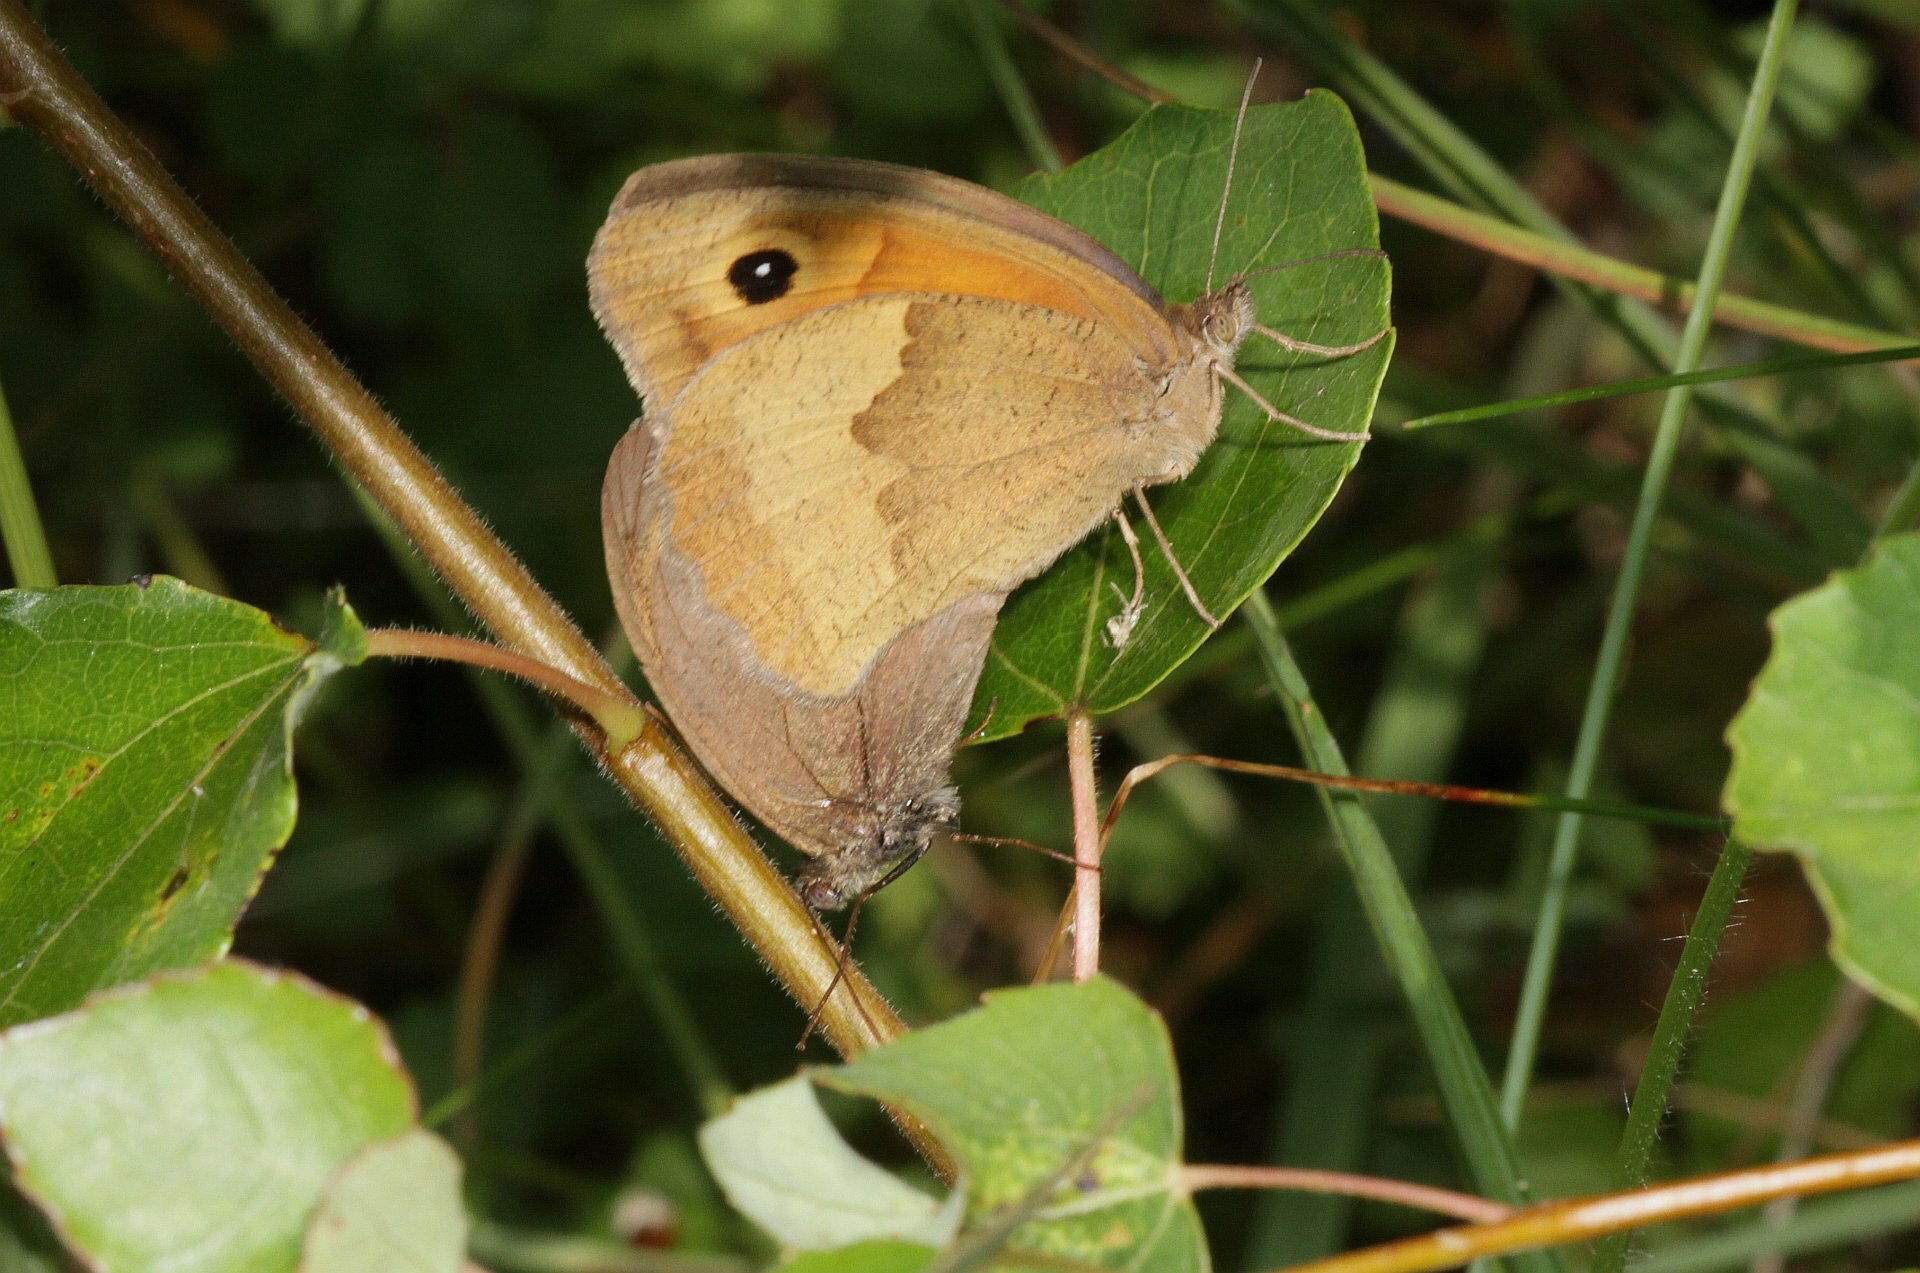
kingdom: Animalia
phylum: Arthropoda
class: Insecta
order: Lepidoptera
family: Nymphalidae
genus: Maniola
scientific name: Maniola jurtina
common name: Meadow brown
